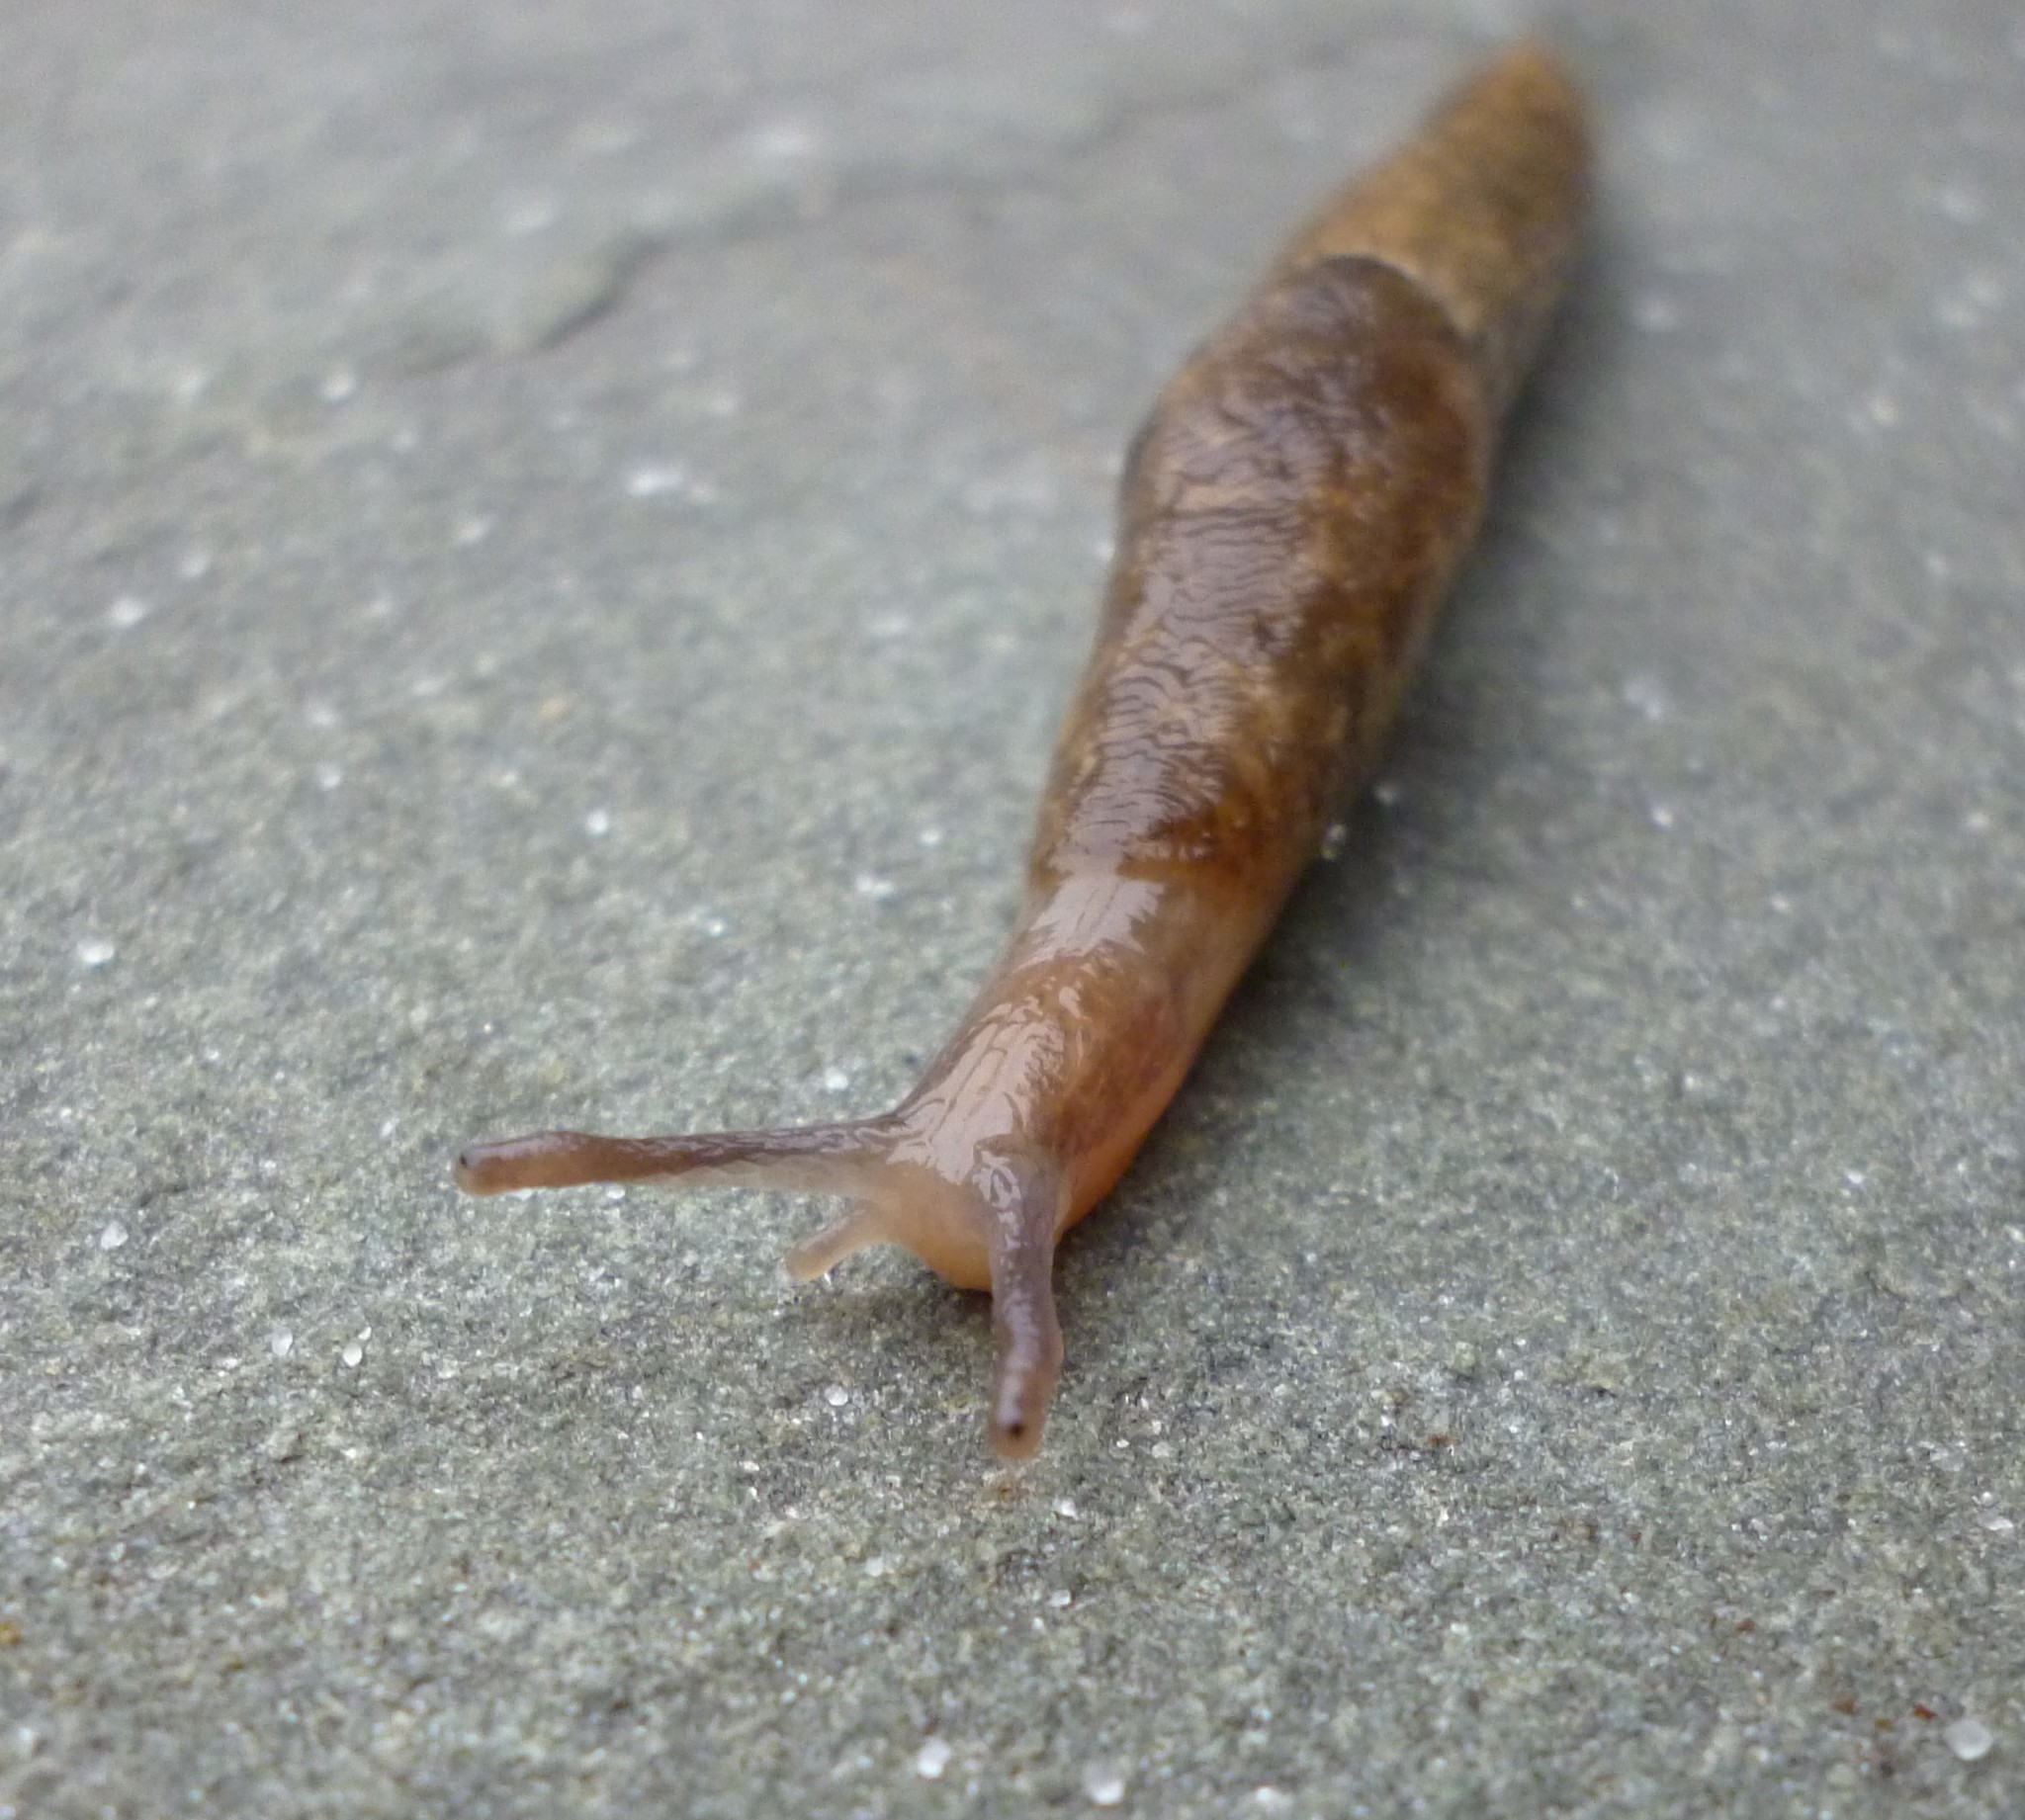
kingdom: Animalia
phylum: Mollusca
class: Gastropoda
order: Stylommatophora
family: Agriolimacidae
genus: Deroceras
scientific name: Deroceras reticulatum
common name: Gray field slug
